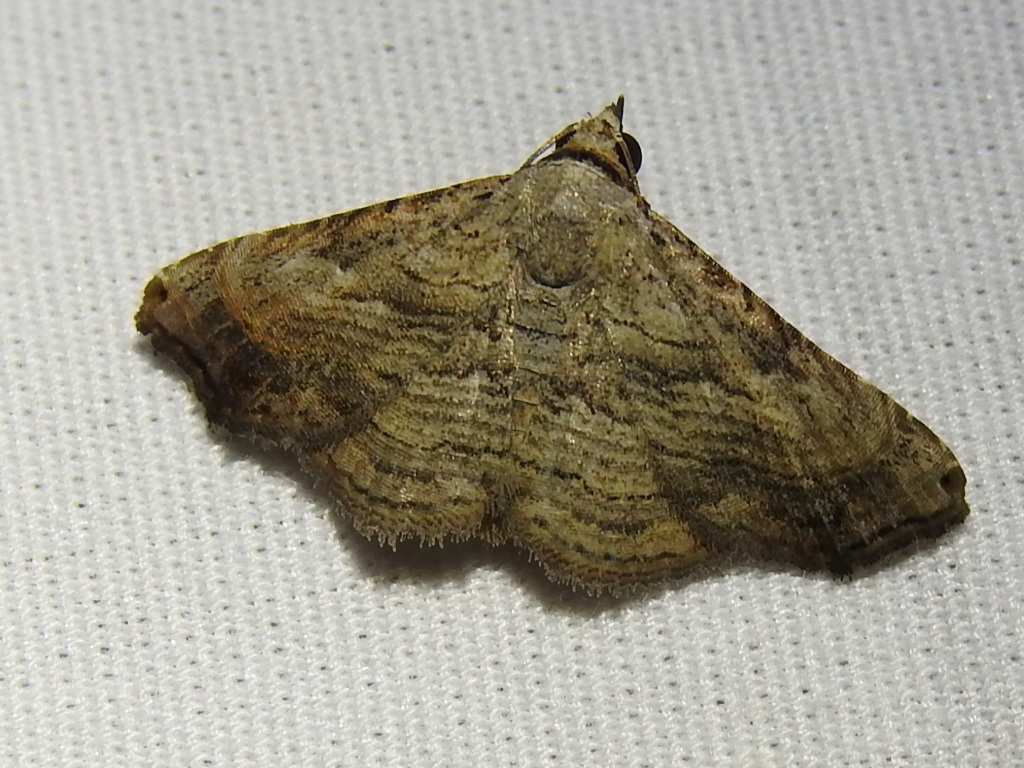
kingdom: Animalia
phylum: Arthropoda
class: Insecta
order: Lepidoptera
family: Erebidae
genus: Tyrissa
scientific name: Tyrissa multilinea
